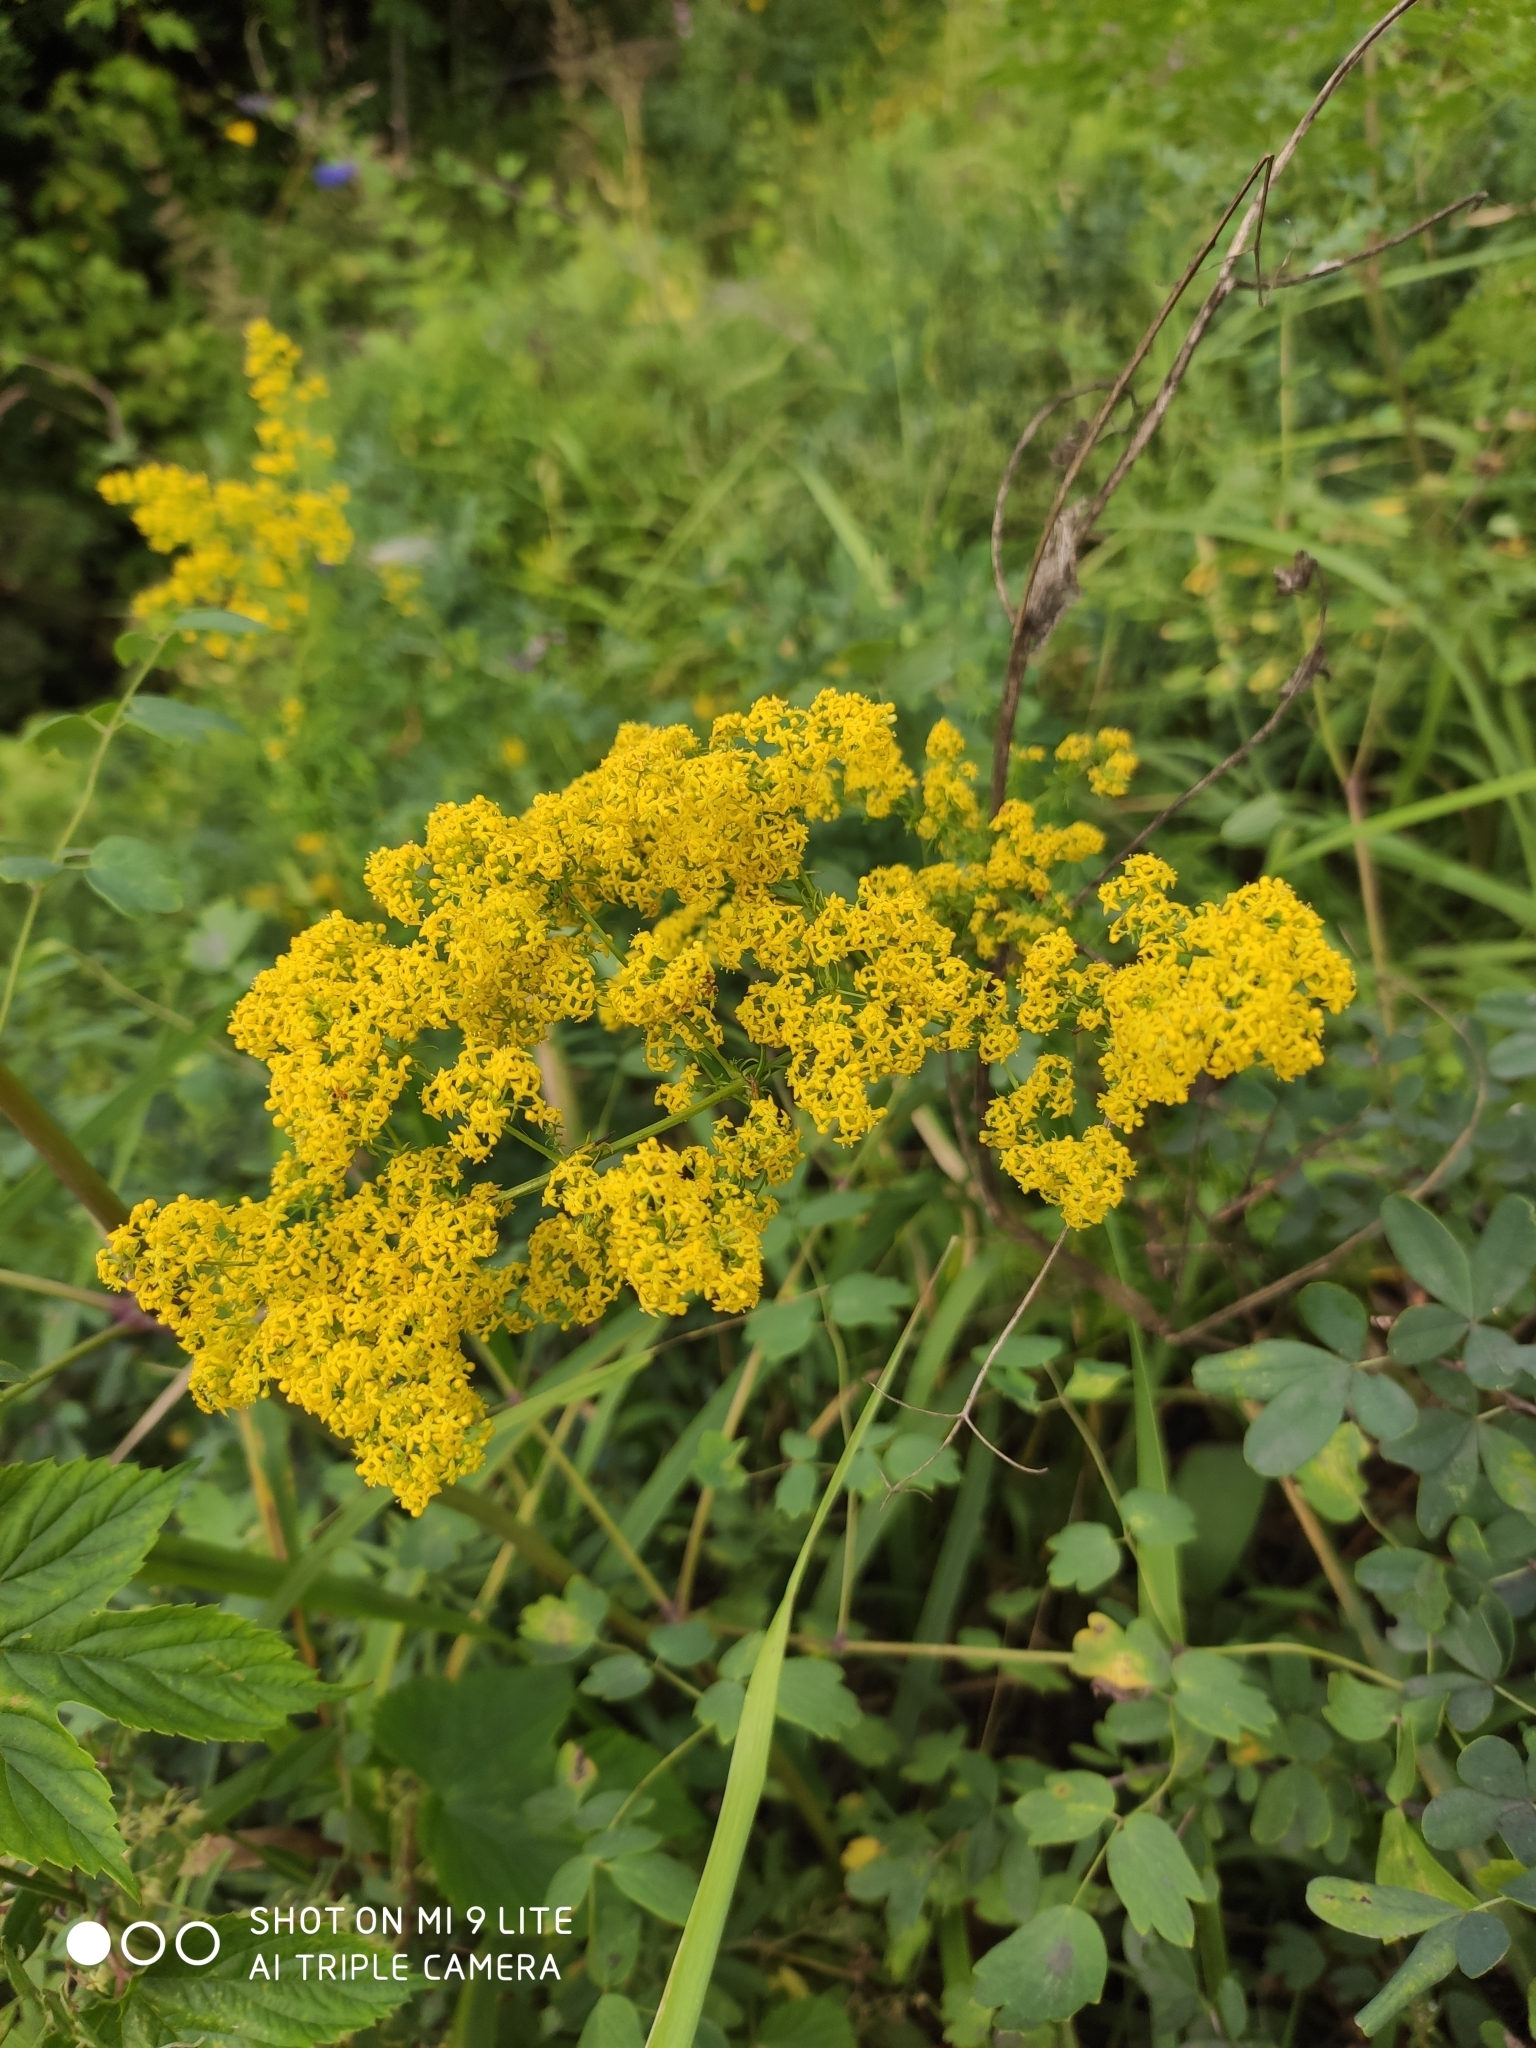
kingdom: Plantae
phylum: Tracheophyta
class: Magnoliopsida
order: Gentianales
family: Rubiaceae
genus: Galium
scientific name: Galium verum
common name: Lady's bedstraw
